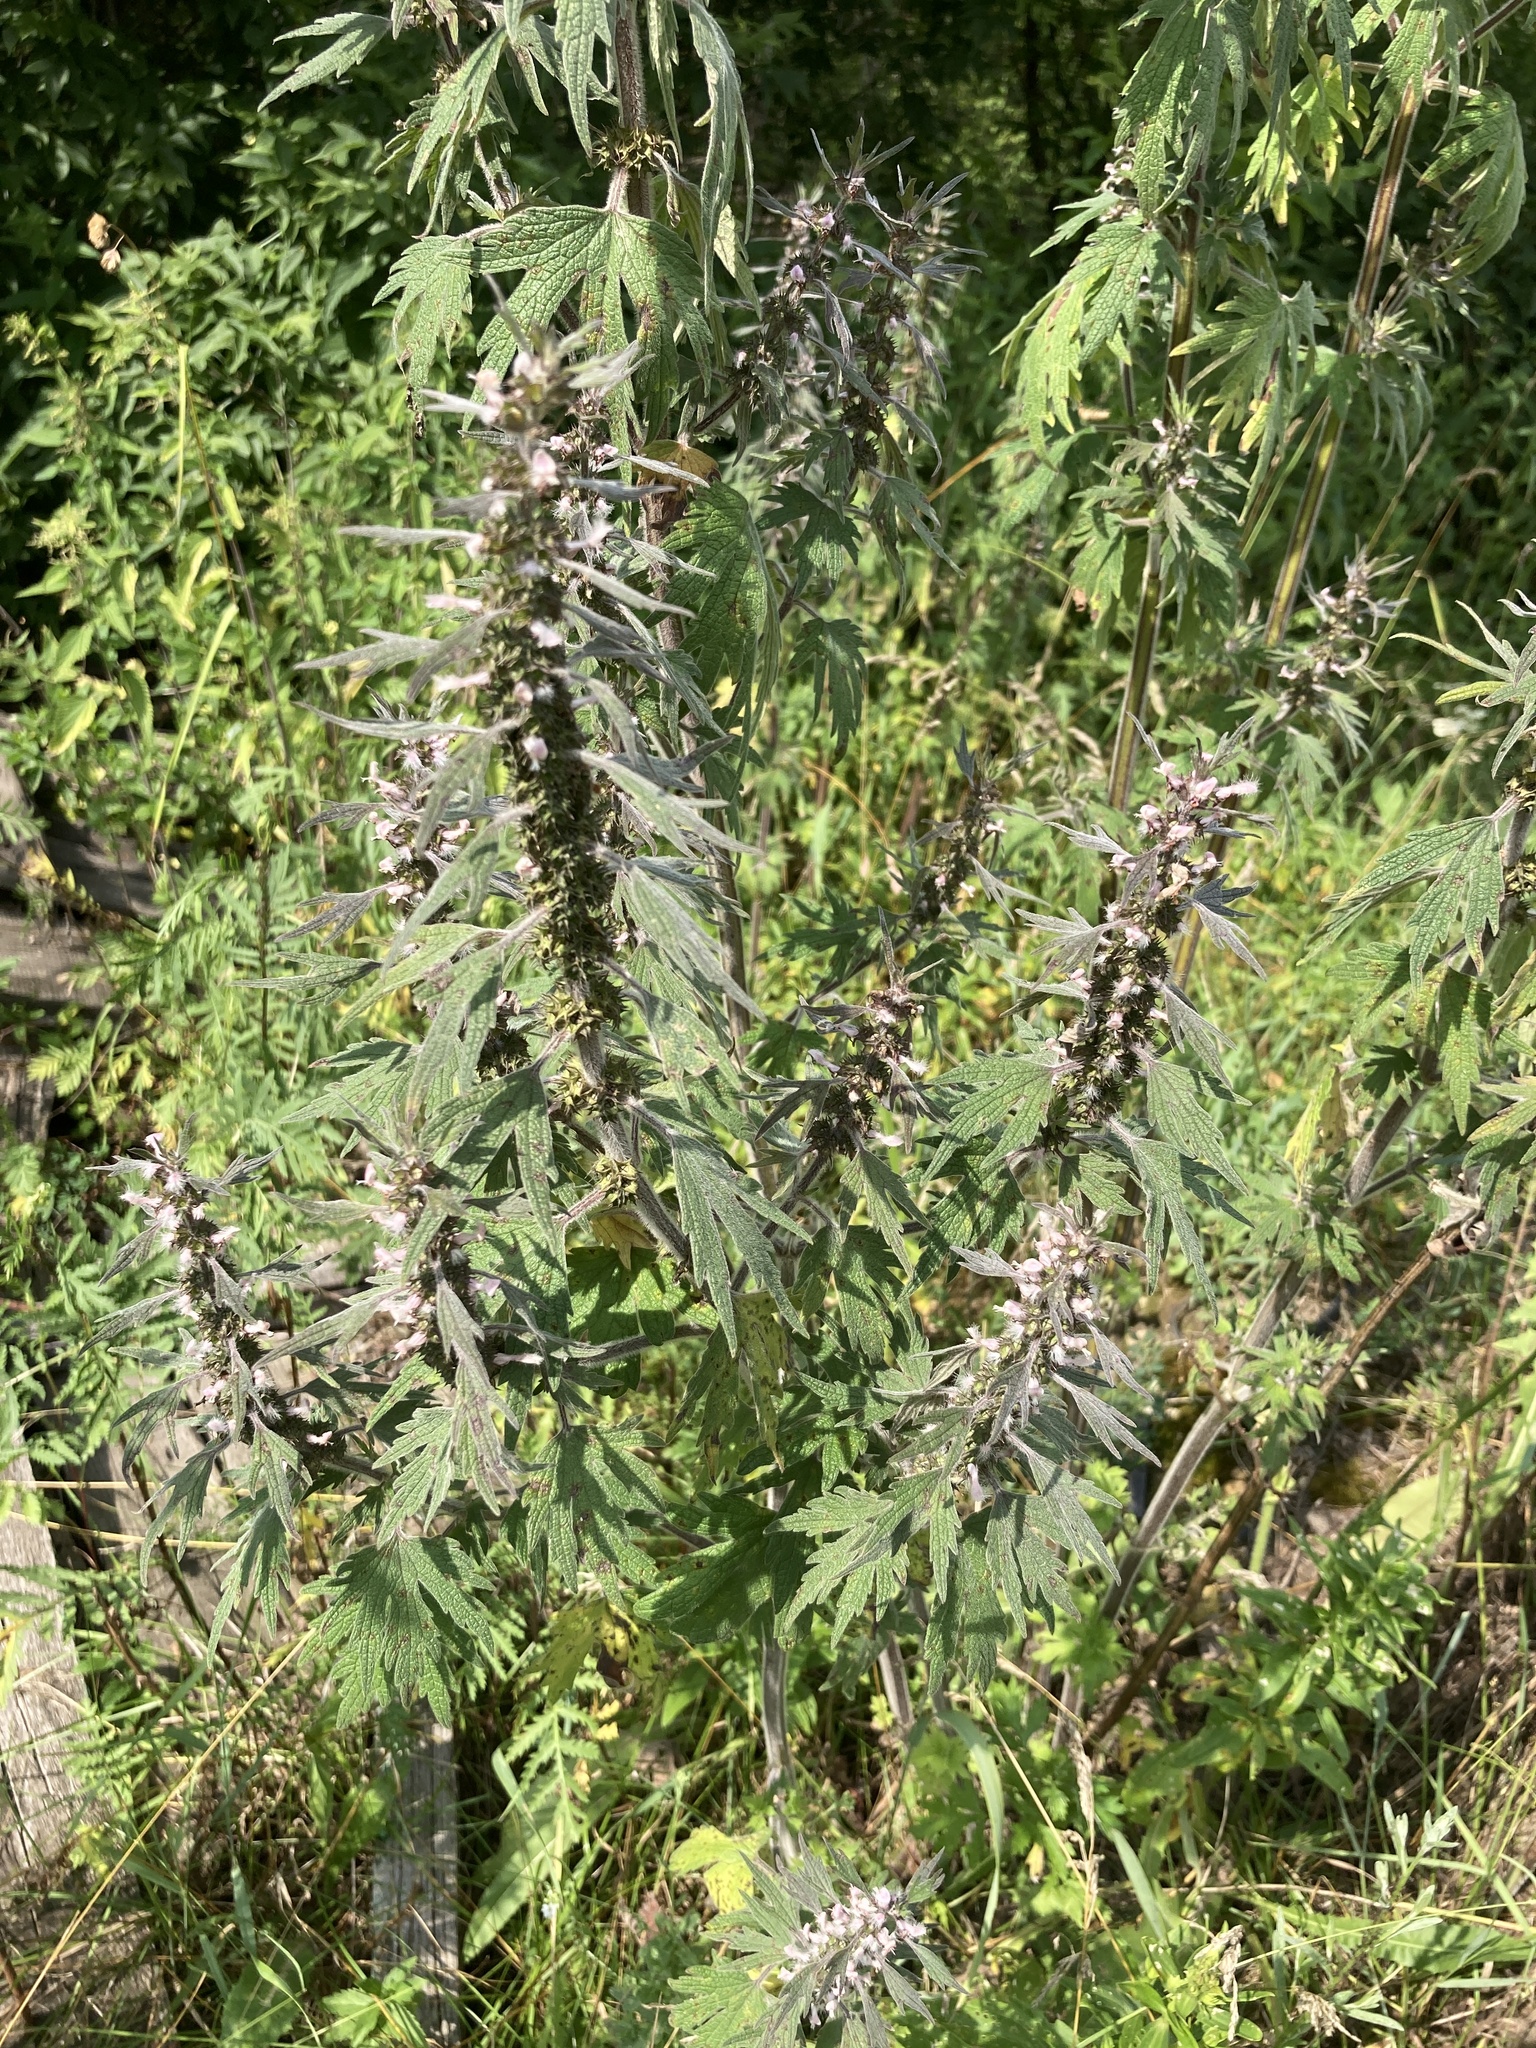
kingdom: Plantae
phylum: Tracheophyta
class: Magnoliopsida
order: Lamiales
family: Lamiaceae
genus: Leonurus
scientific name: Leonurus quinquelobatus
